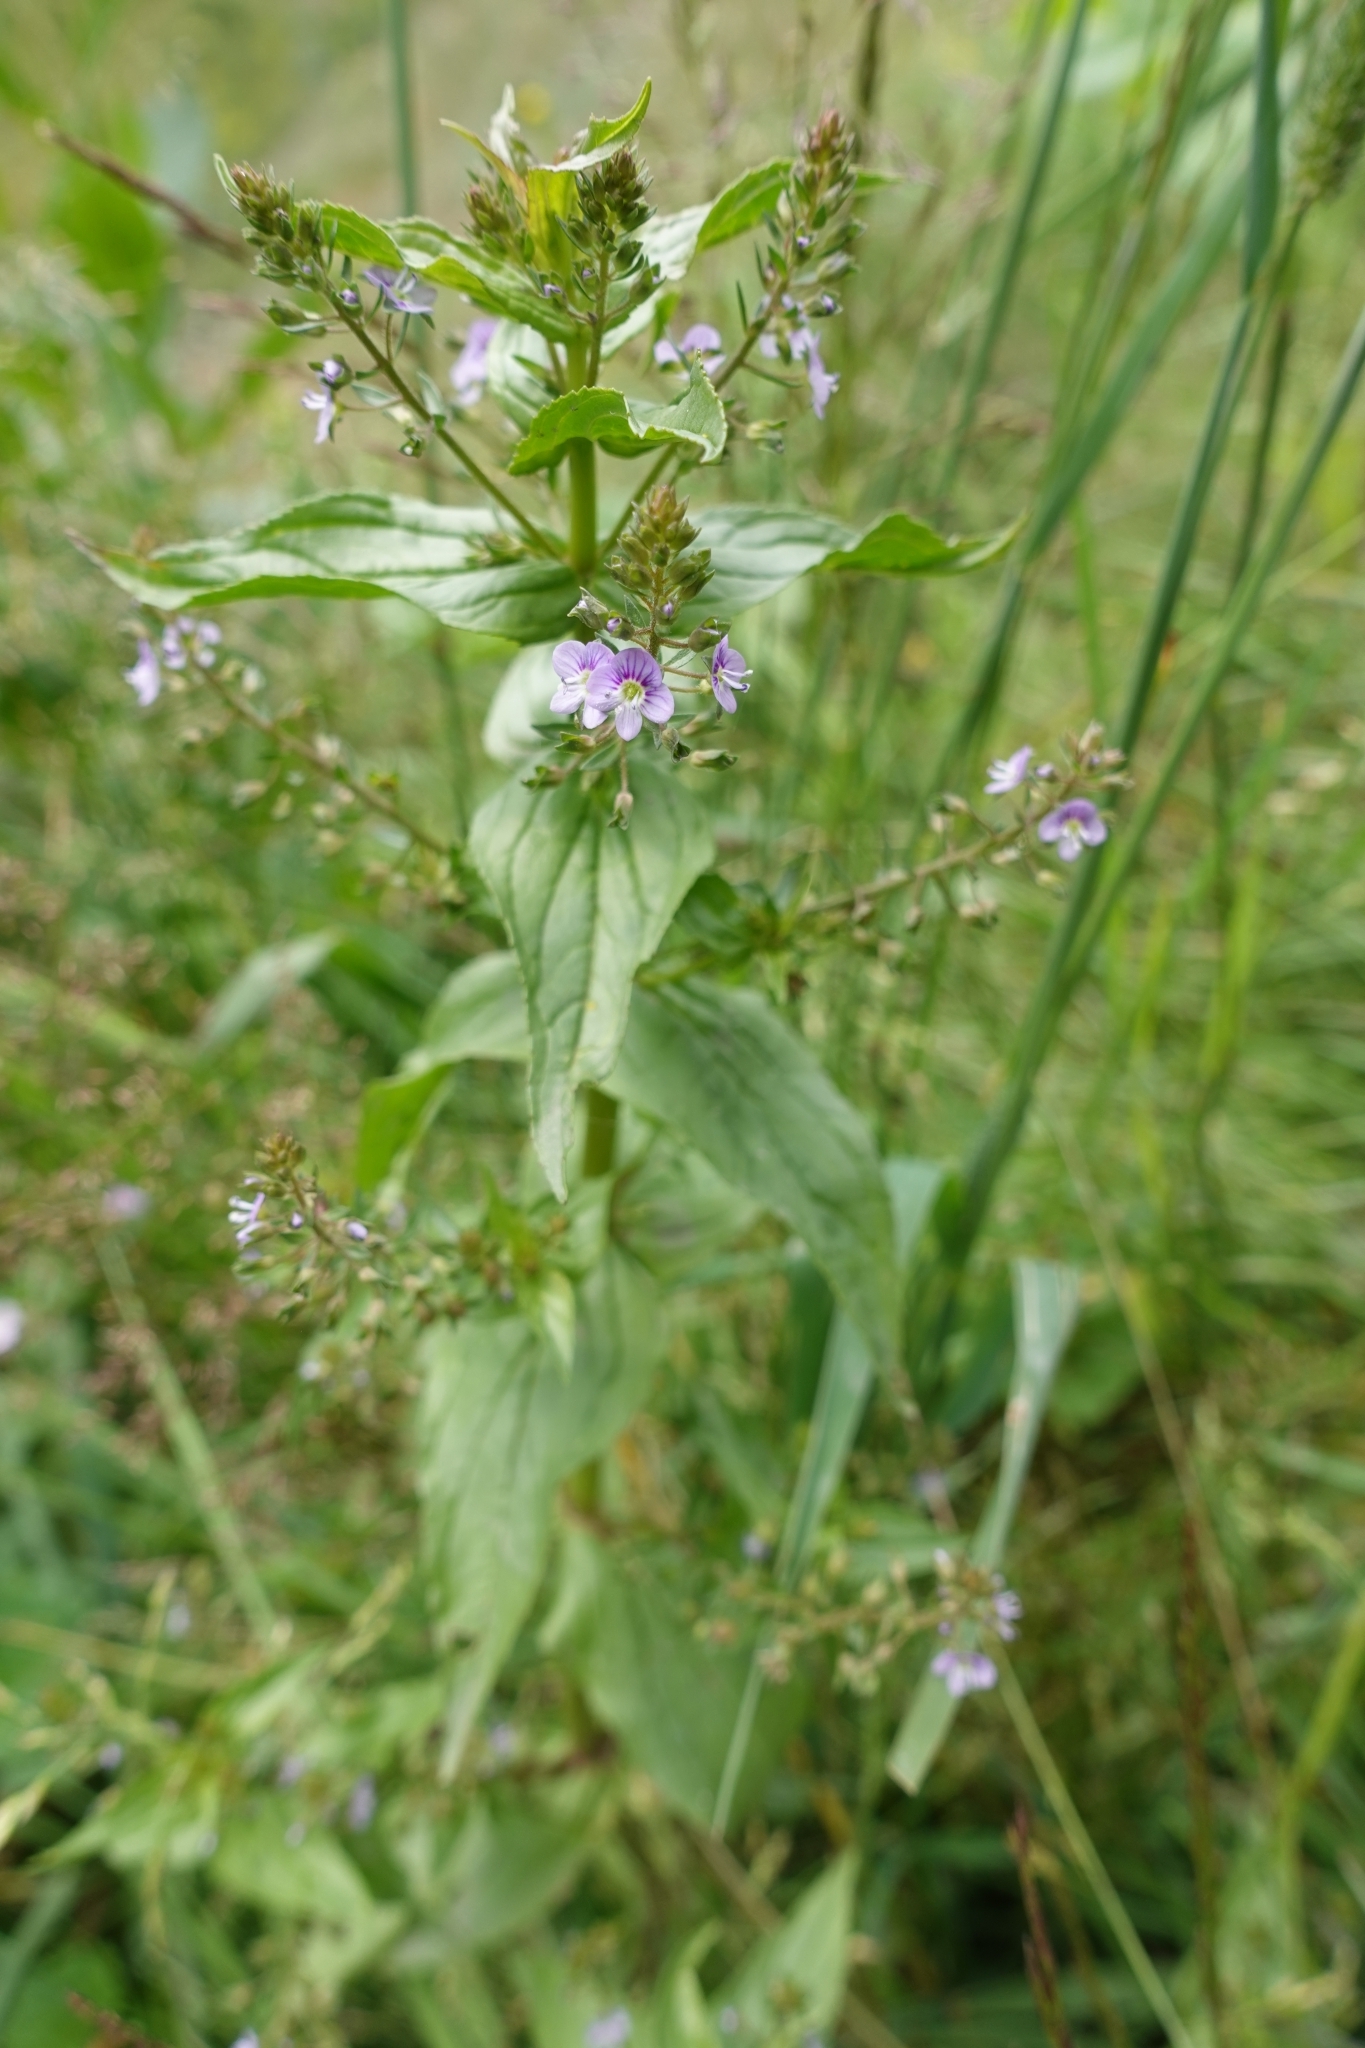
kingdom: Plantae
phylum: Tracheophyta
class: Magnoliopsida
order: Lamiales
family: Plantaginaceae
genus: Veronica
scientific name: Veronica anagallis-aquatica
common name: Water speedwell
